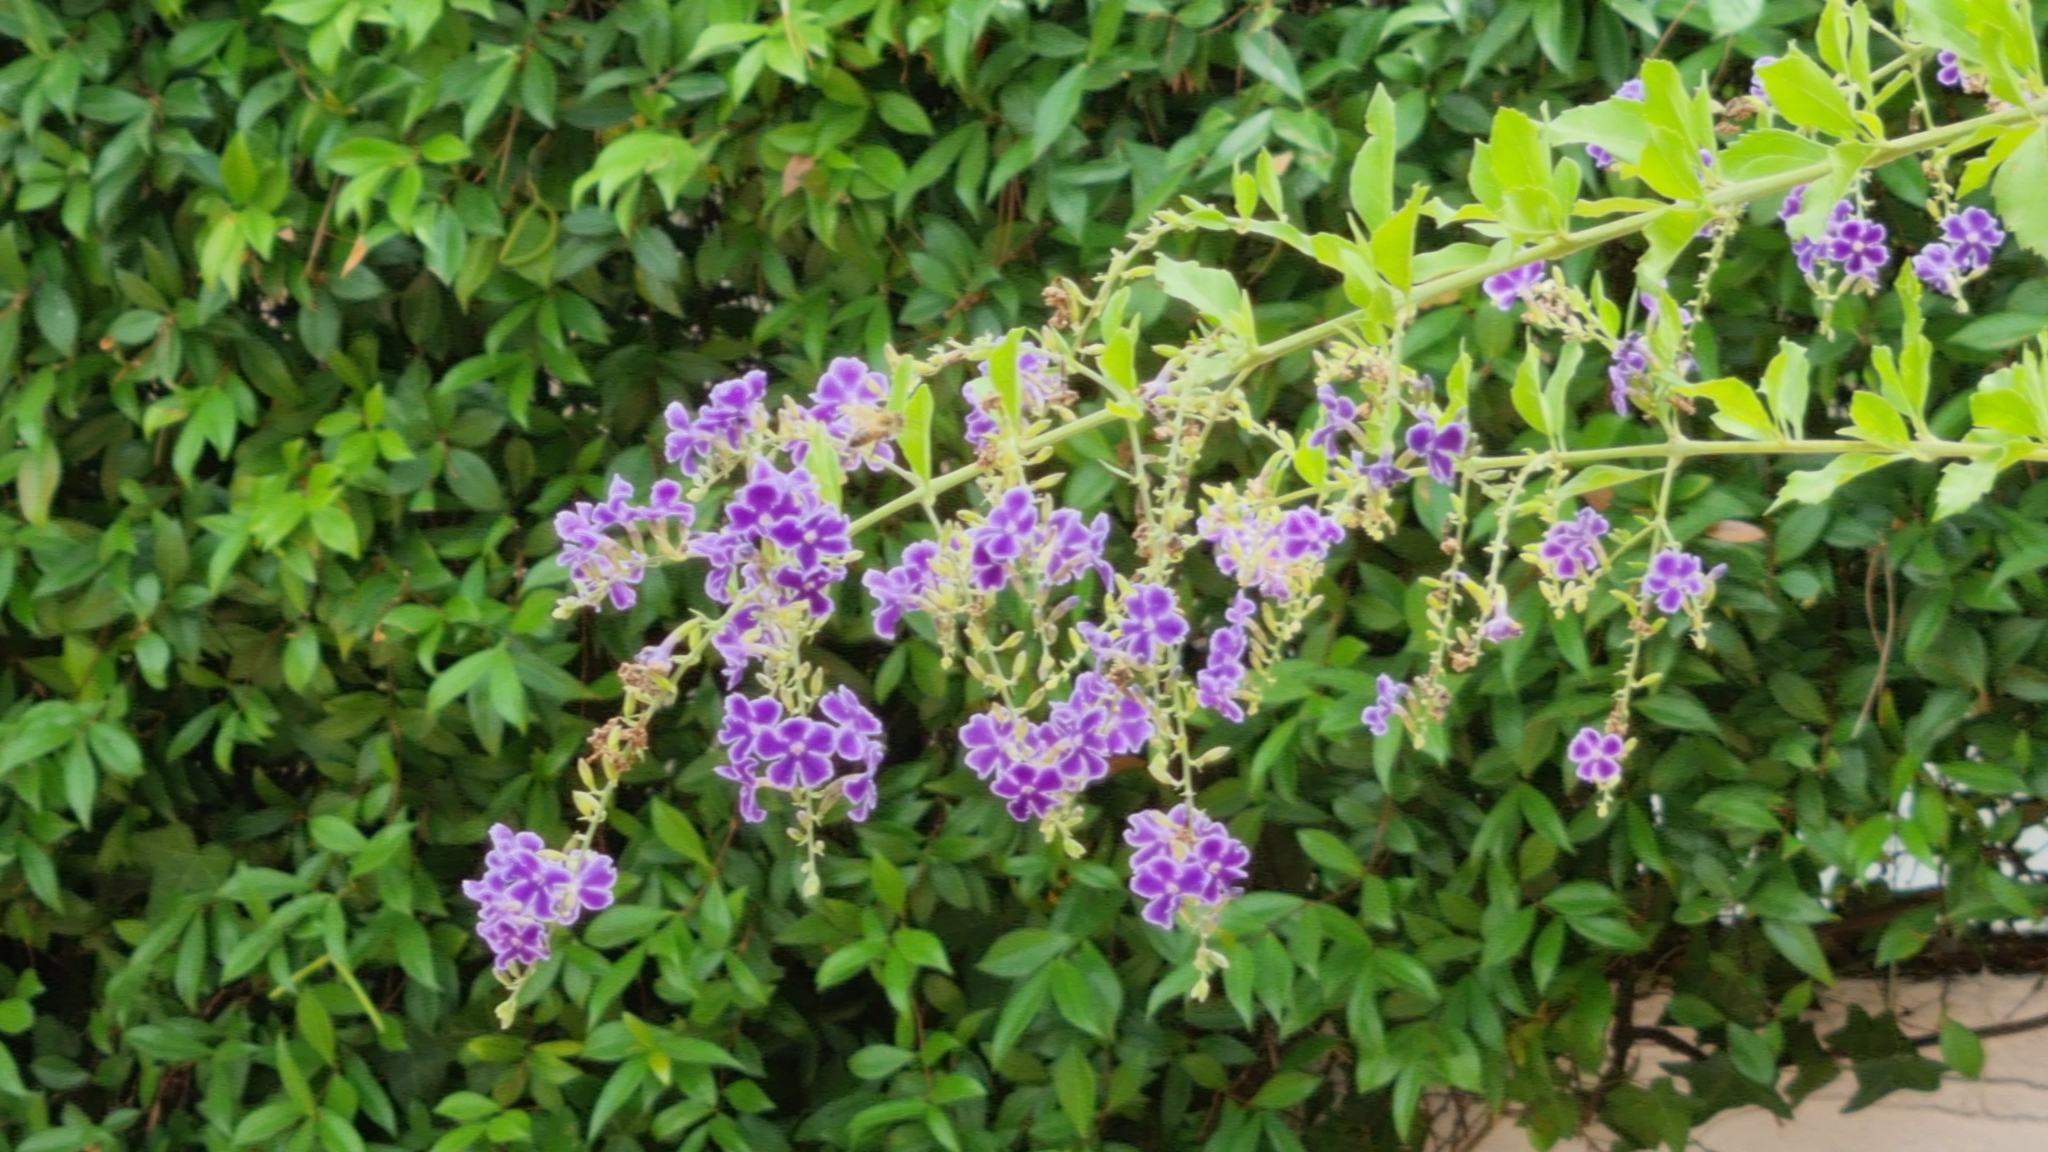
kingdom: Animalia
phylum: Arthropoda
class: Insecta
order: Hymenoptera
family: Apidae
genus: Apis
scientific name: Apis mellifera
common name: Honey bee
